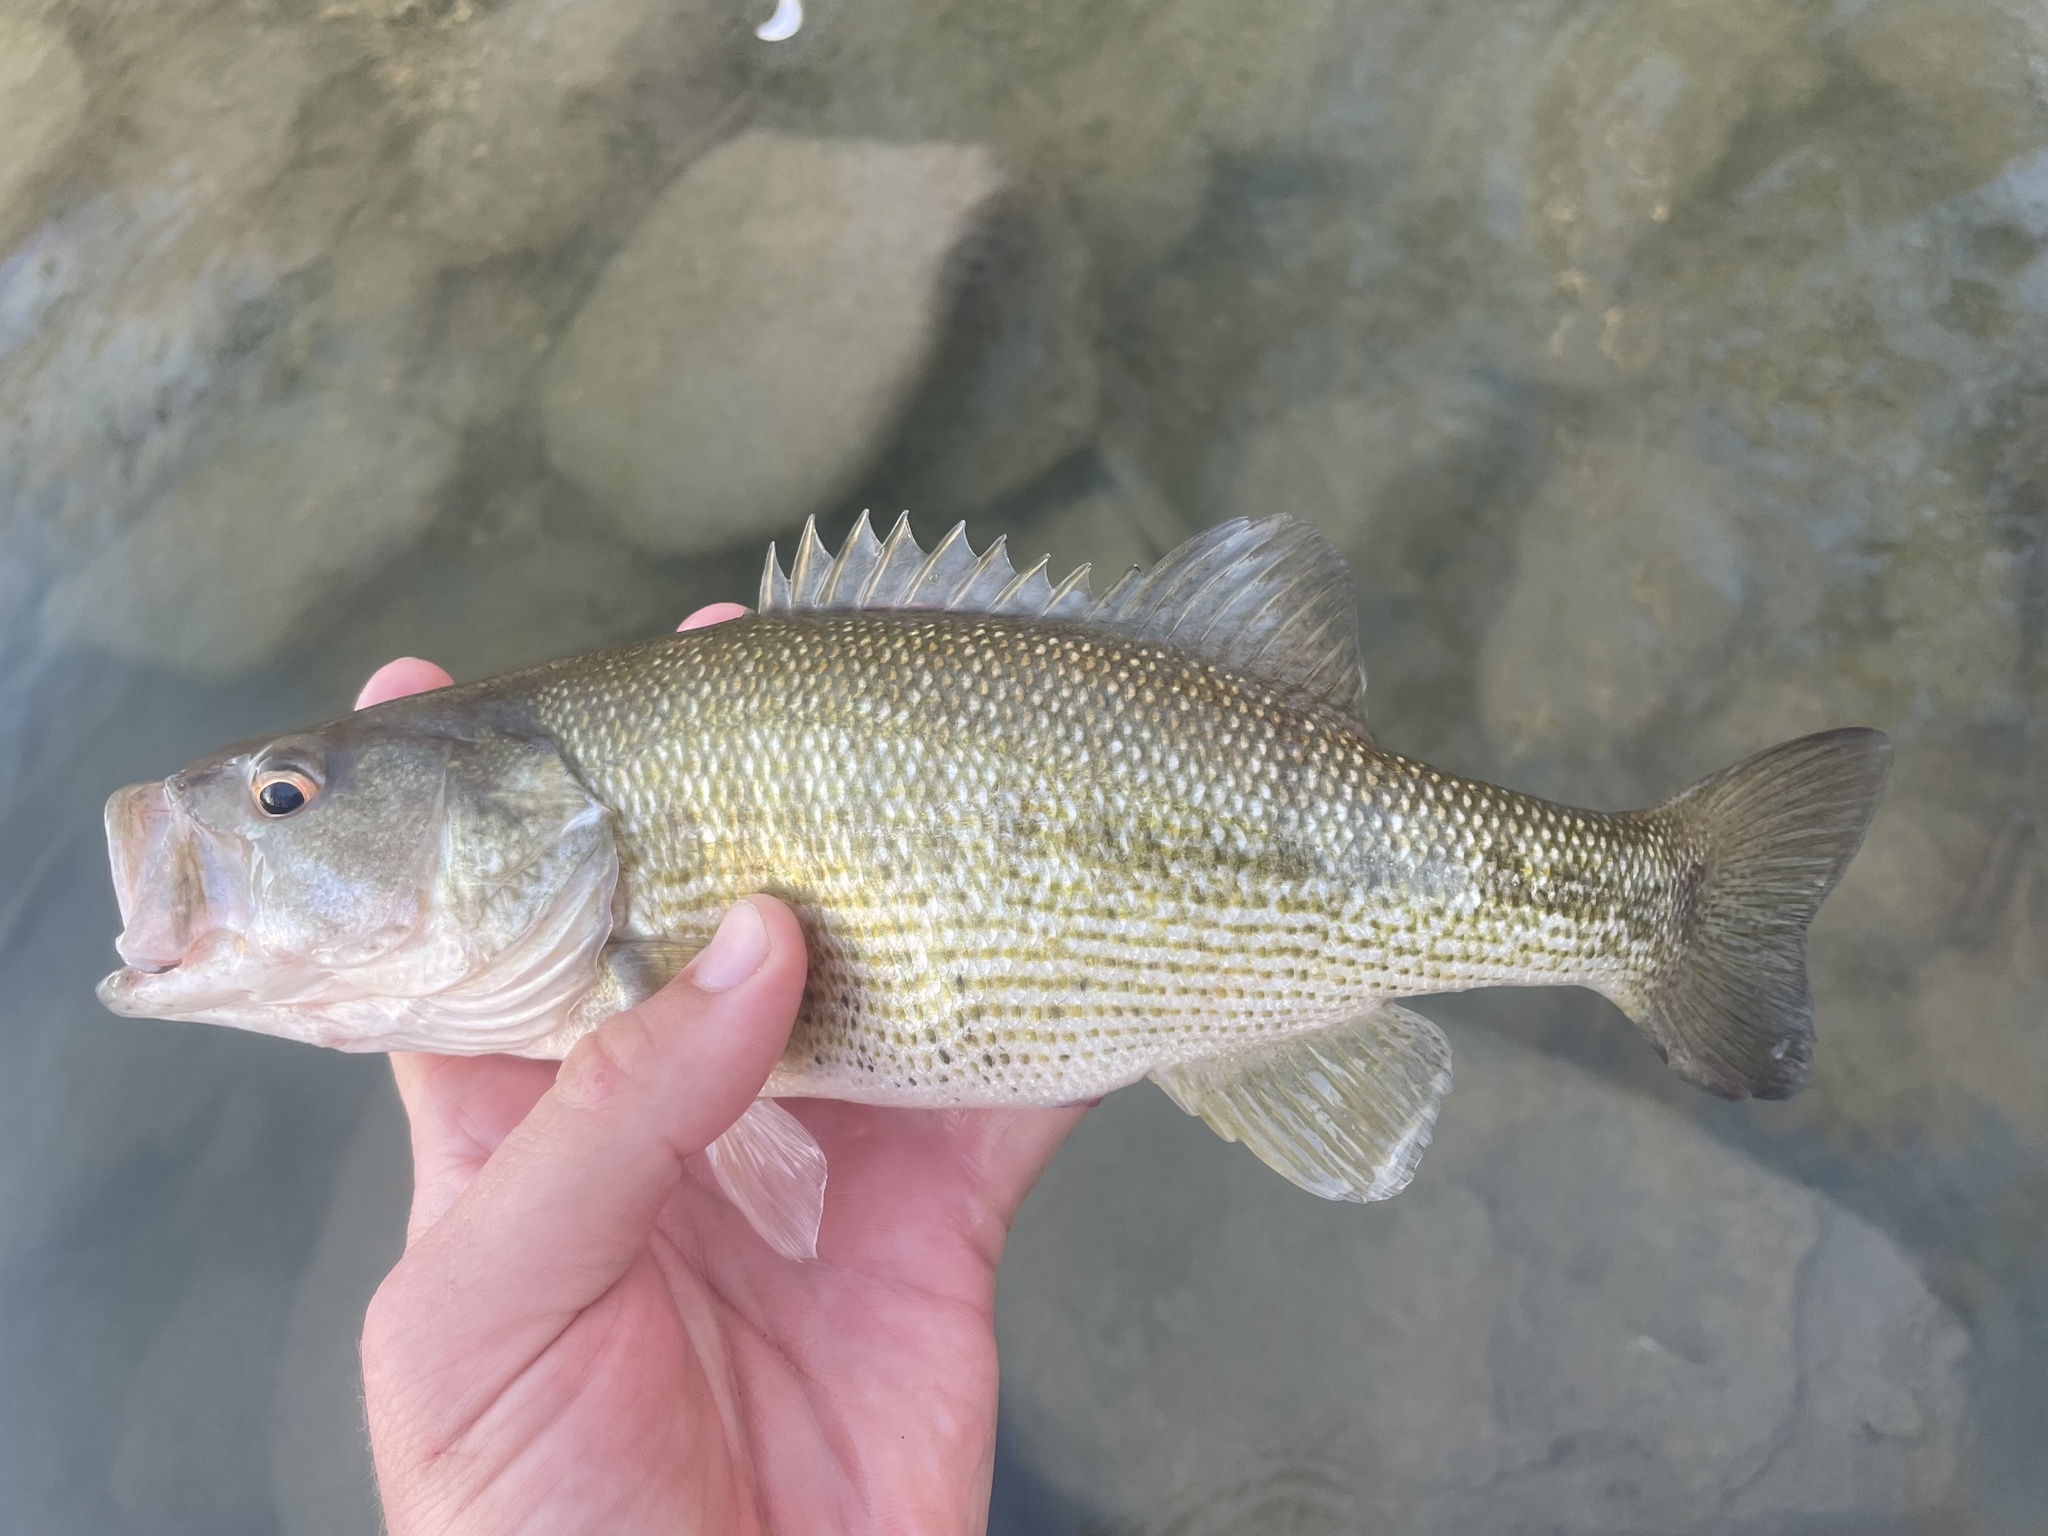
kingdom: Animalia
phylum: Chordata
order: Perciformes
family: Centrarchidae
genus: Micropterus
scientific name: Micropterus treculii
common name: Guadalupe bass
